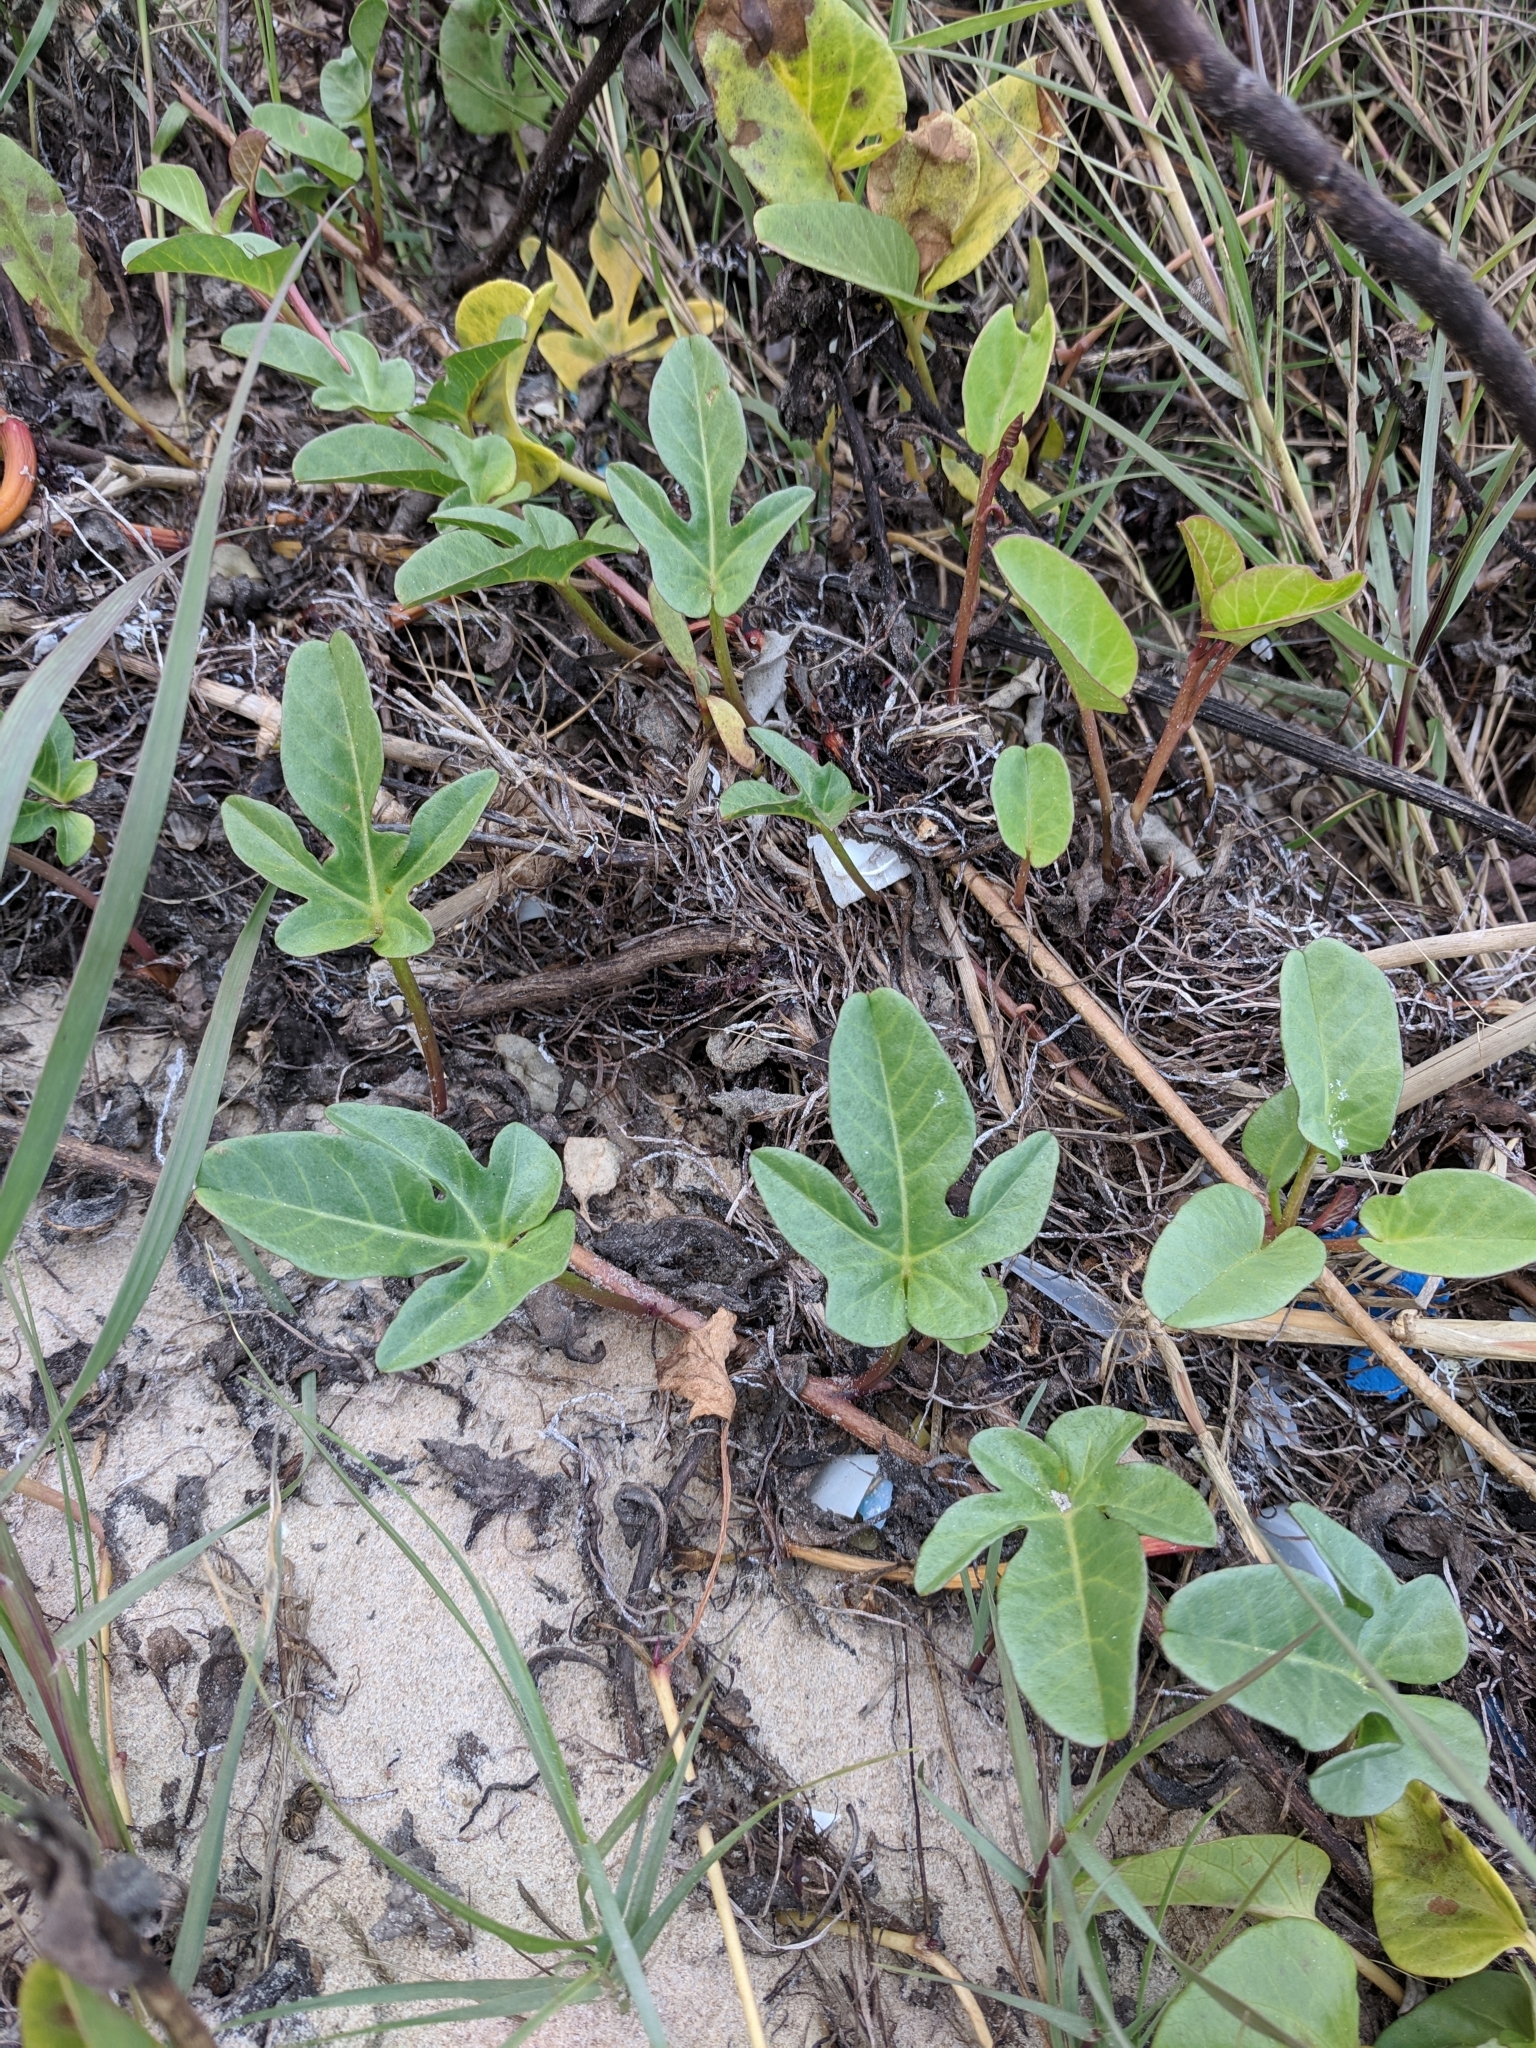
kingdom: Plantae
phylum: Tracheophyta
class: Magnoliopsida
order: Solanales
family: Convolvulaceae
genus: Ipomoea
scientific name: Ipomoea imperati
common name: Fiddle-leaf morning-glory
